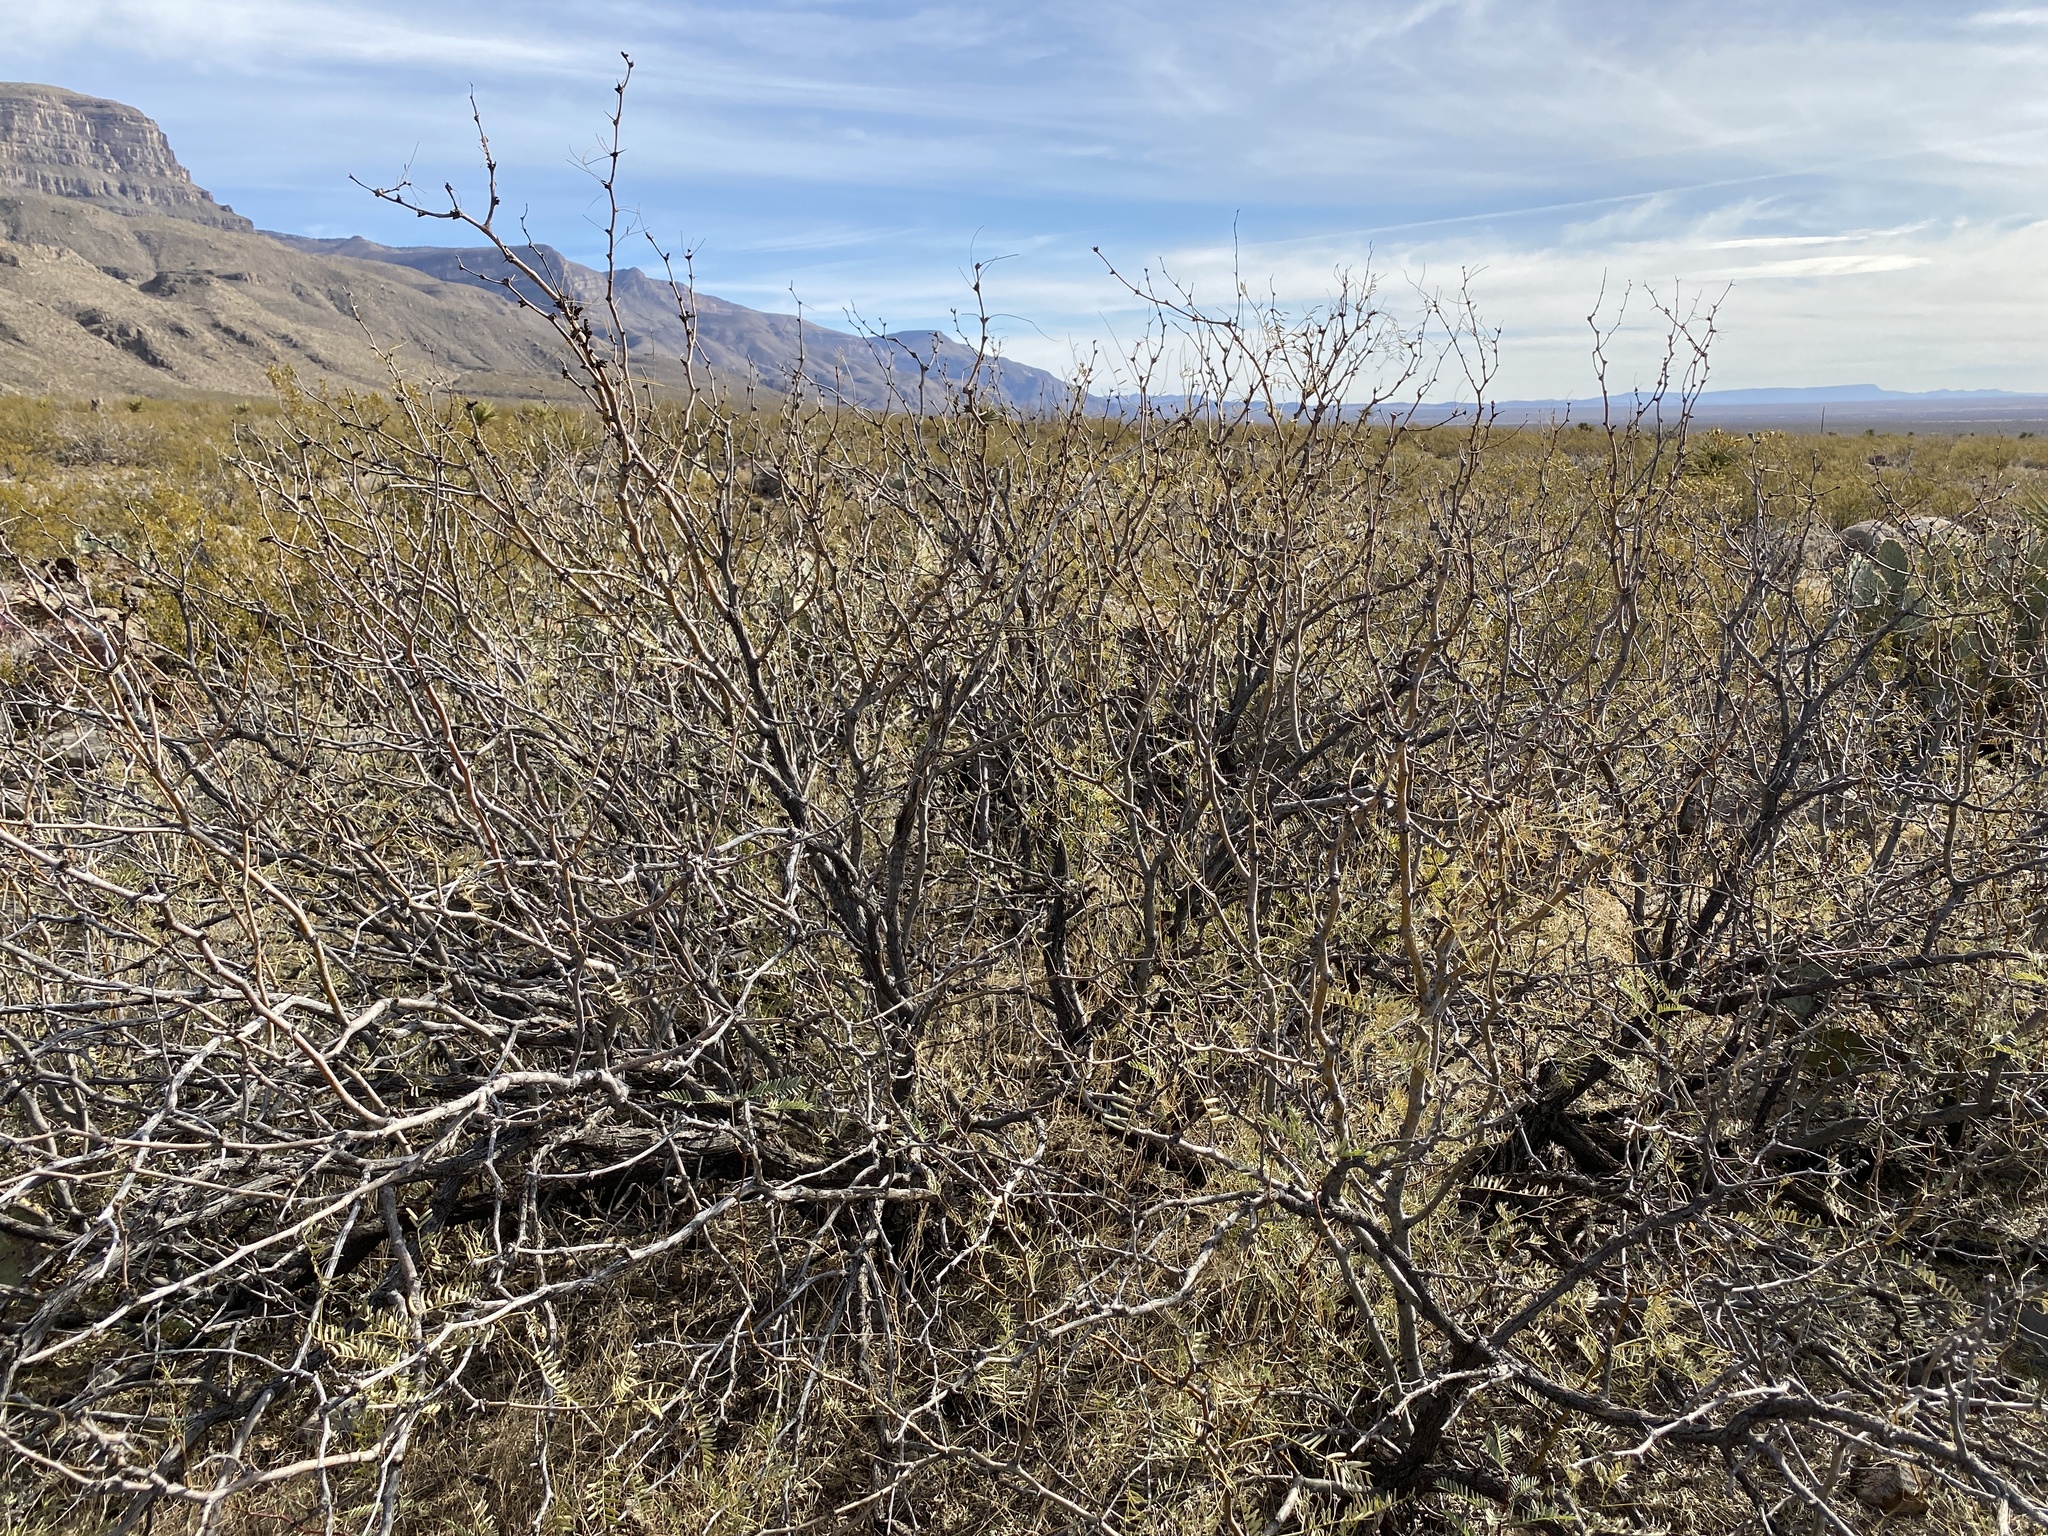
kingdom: Plantae
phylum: Tracheophyta
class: Magnoliopsida
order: Fabales
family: Fabaceae
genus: Prosopis
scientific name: Prosopis glandulosa
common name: Honey mesquite
